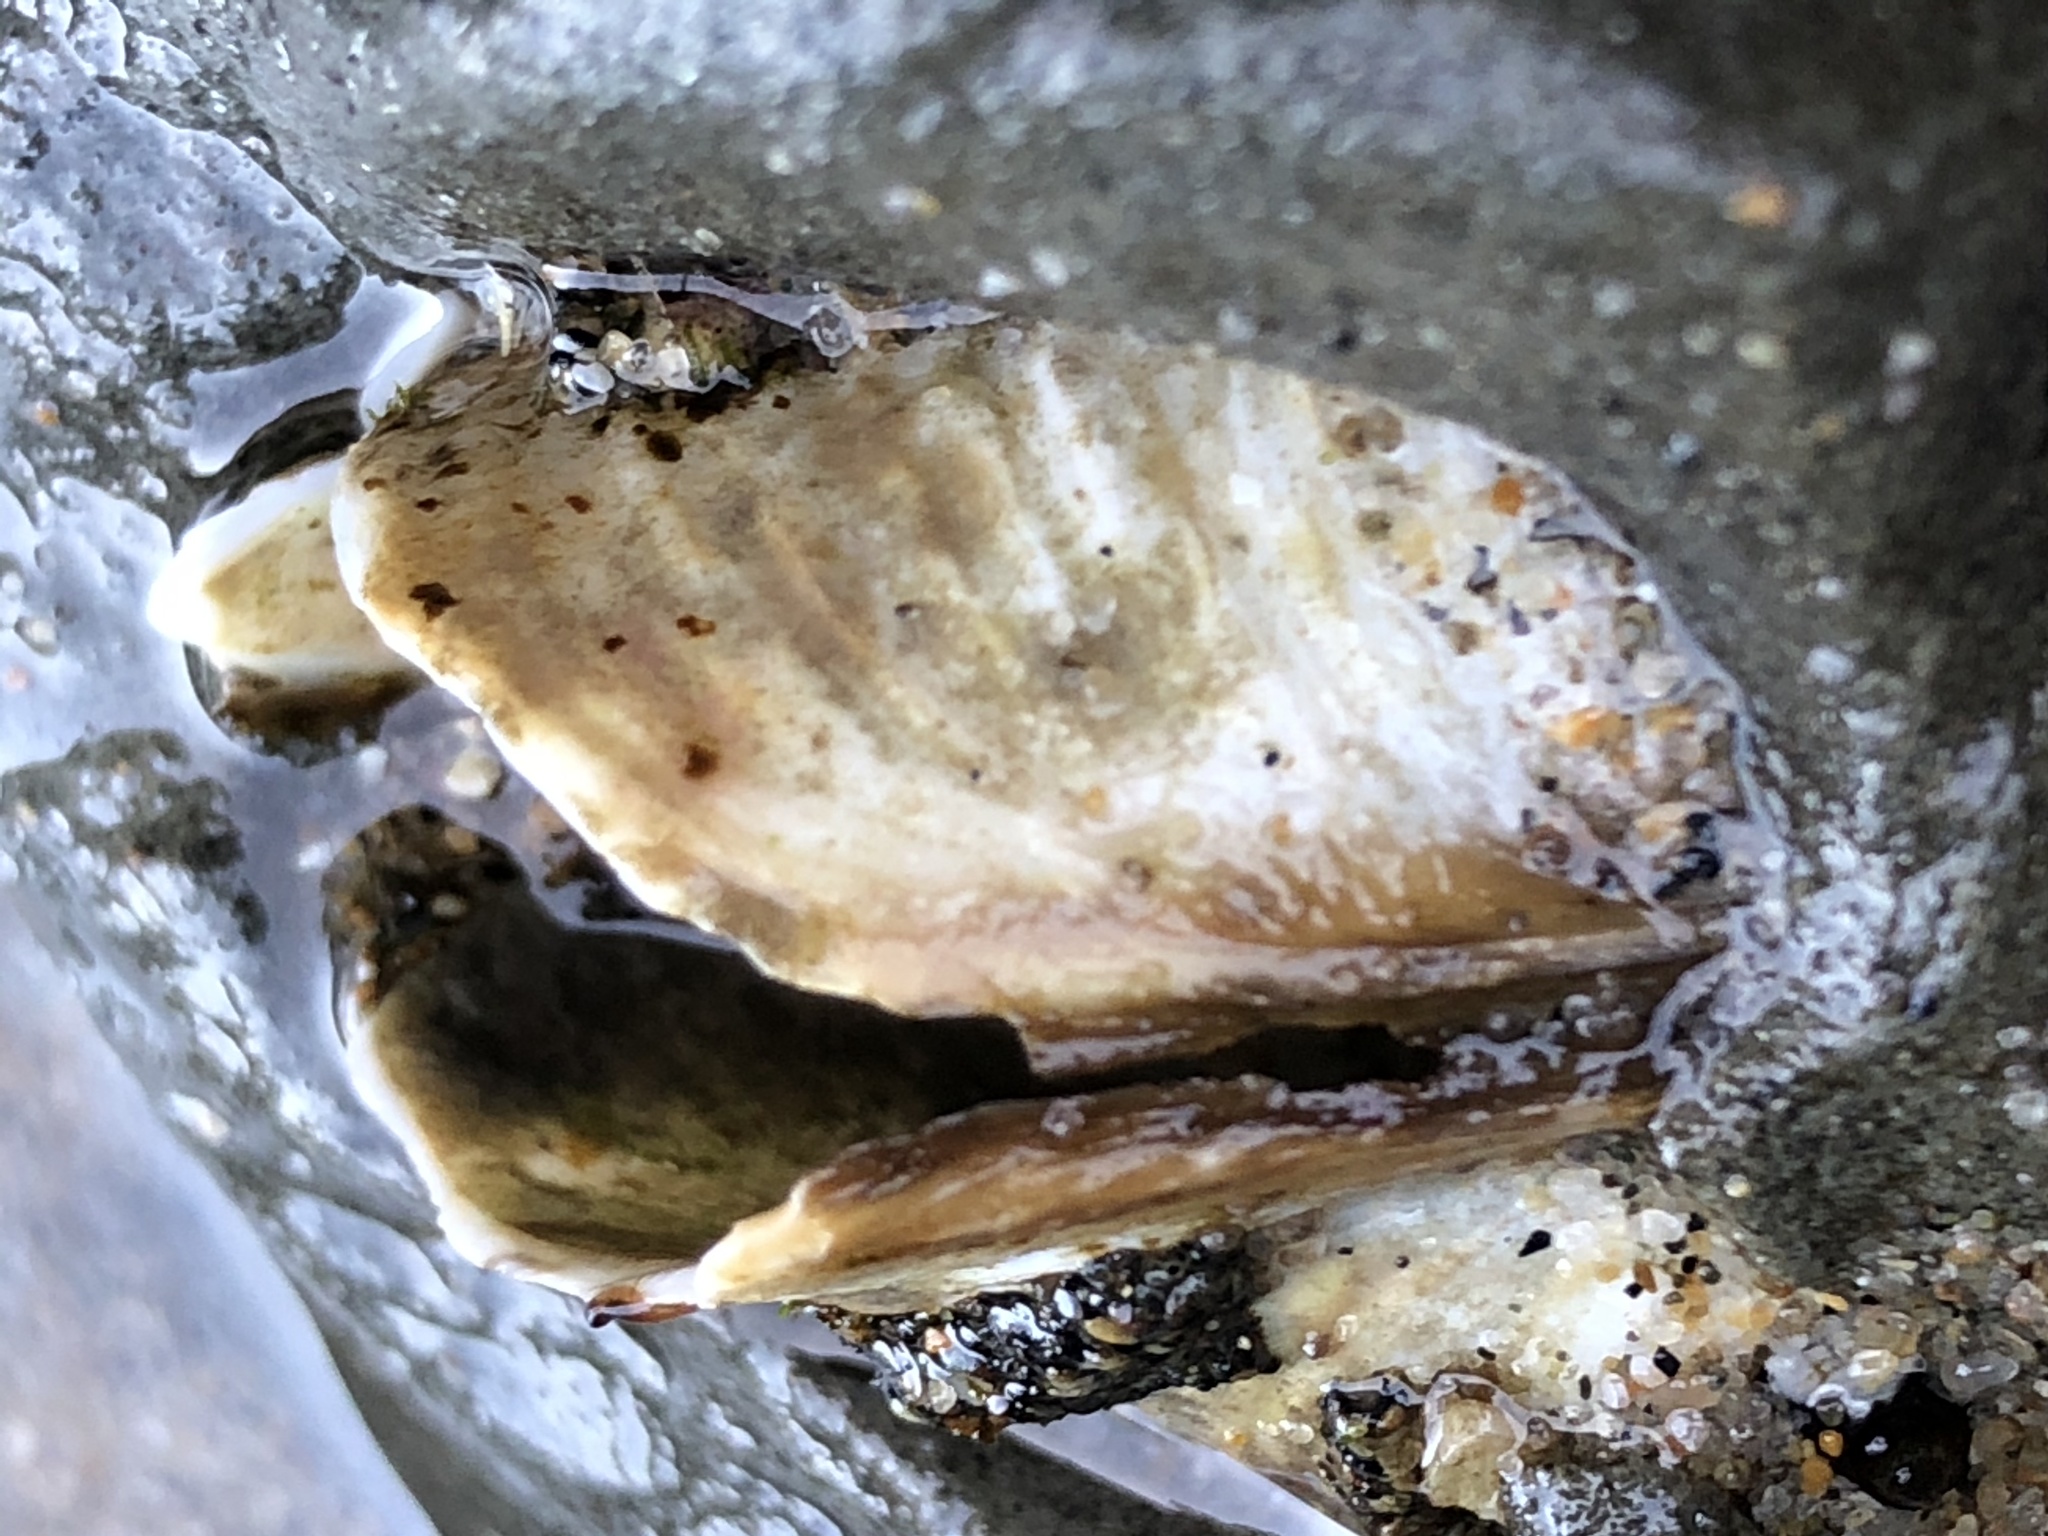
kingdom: Animalia
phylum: Mollusca
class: Bivalvia
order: Myida
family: Pholadidae
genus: Parapholas
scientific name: Parapholas californica
